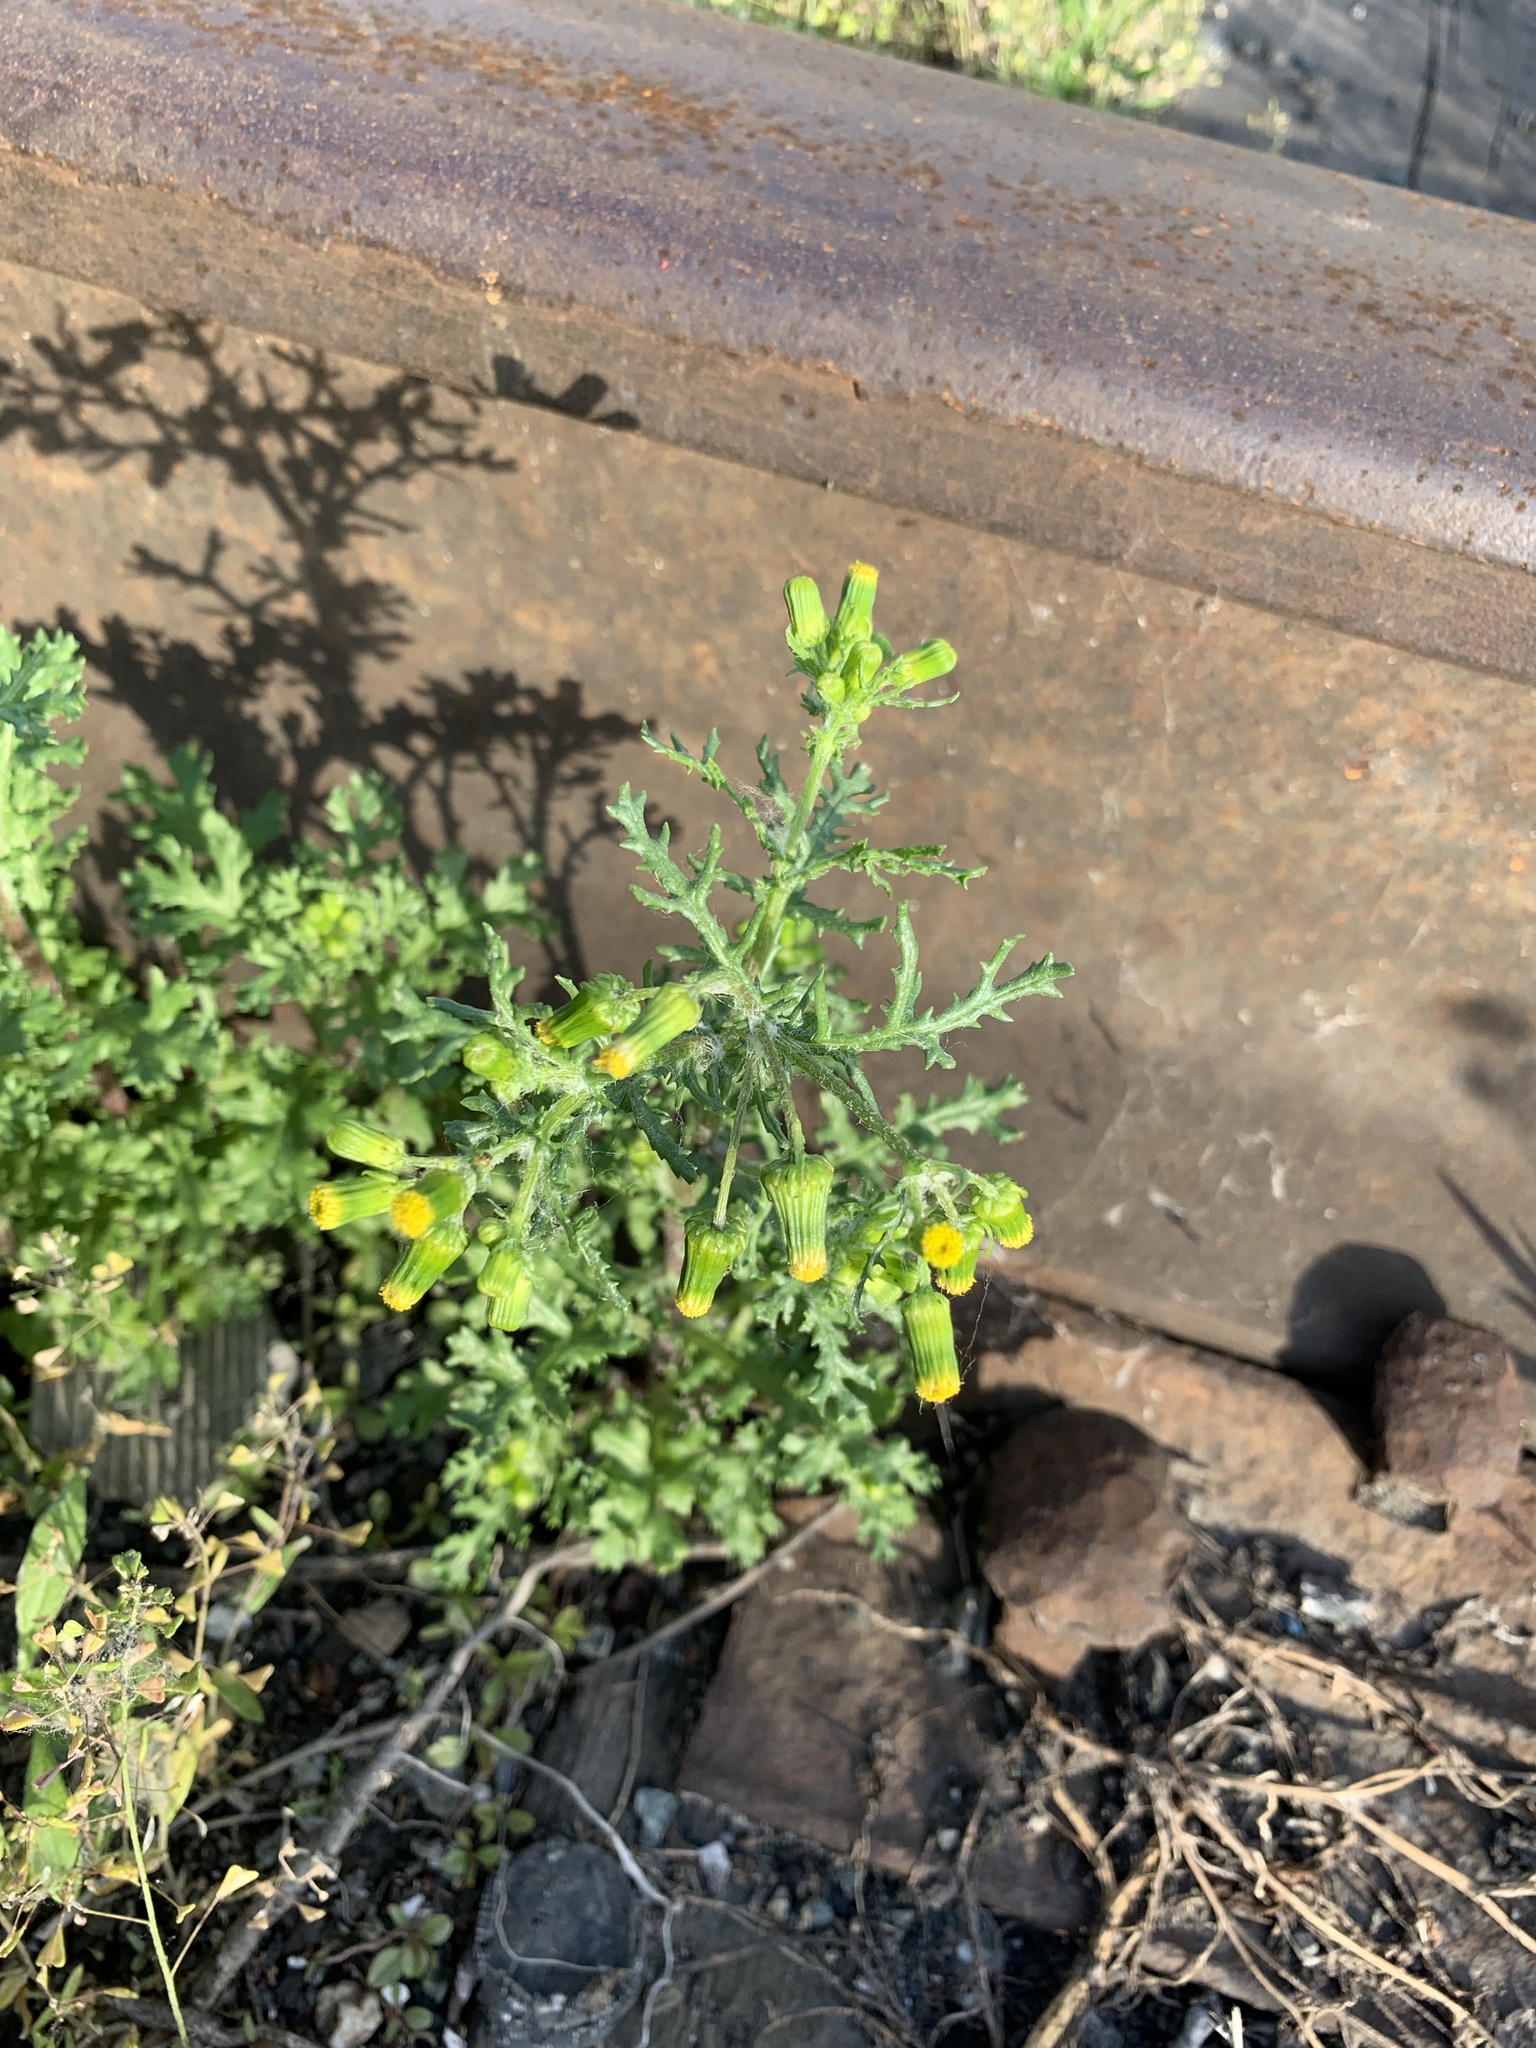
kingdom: Plantae
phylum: Tracheophyta
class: Magnoliopsida
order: Asterales
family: Asteraceae
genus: Senecio
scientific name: Senecio vulgaris
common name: Old-man-in-the-spring
